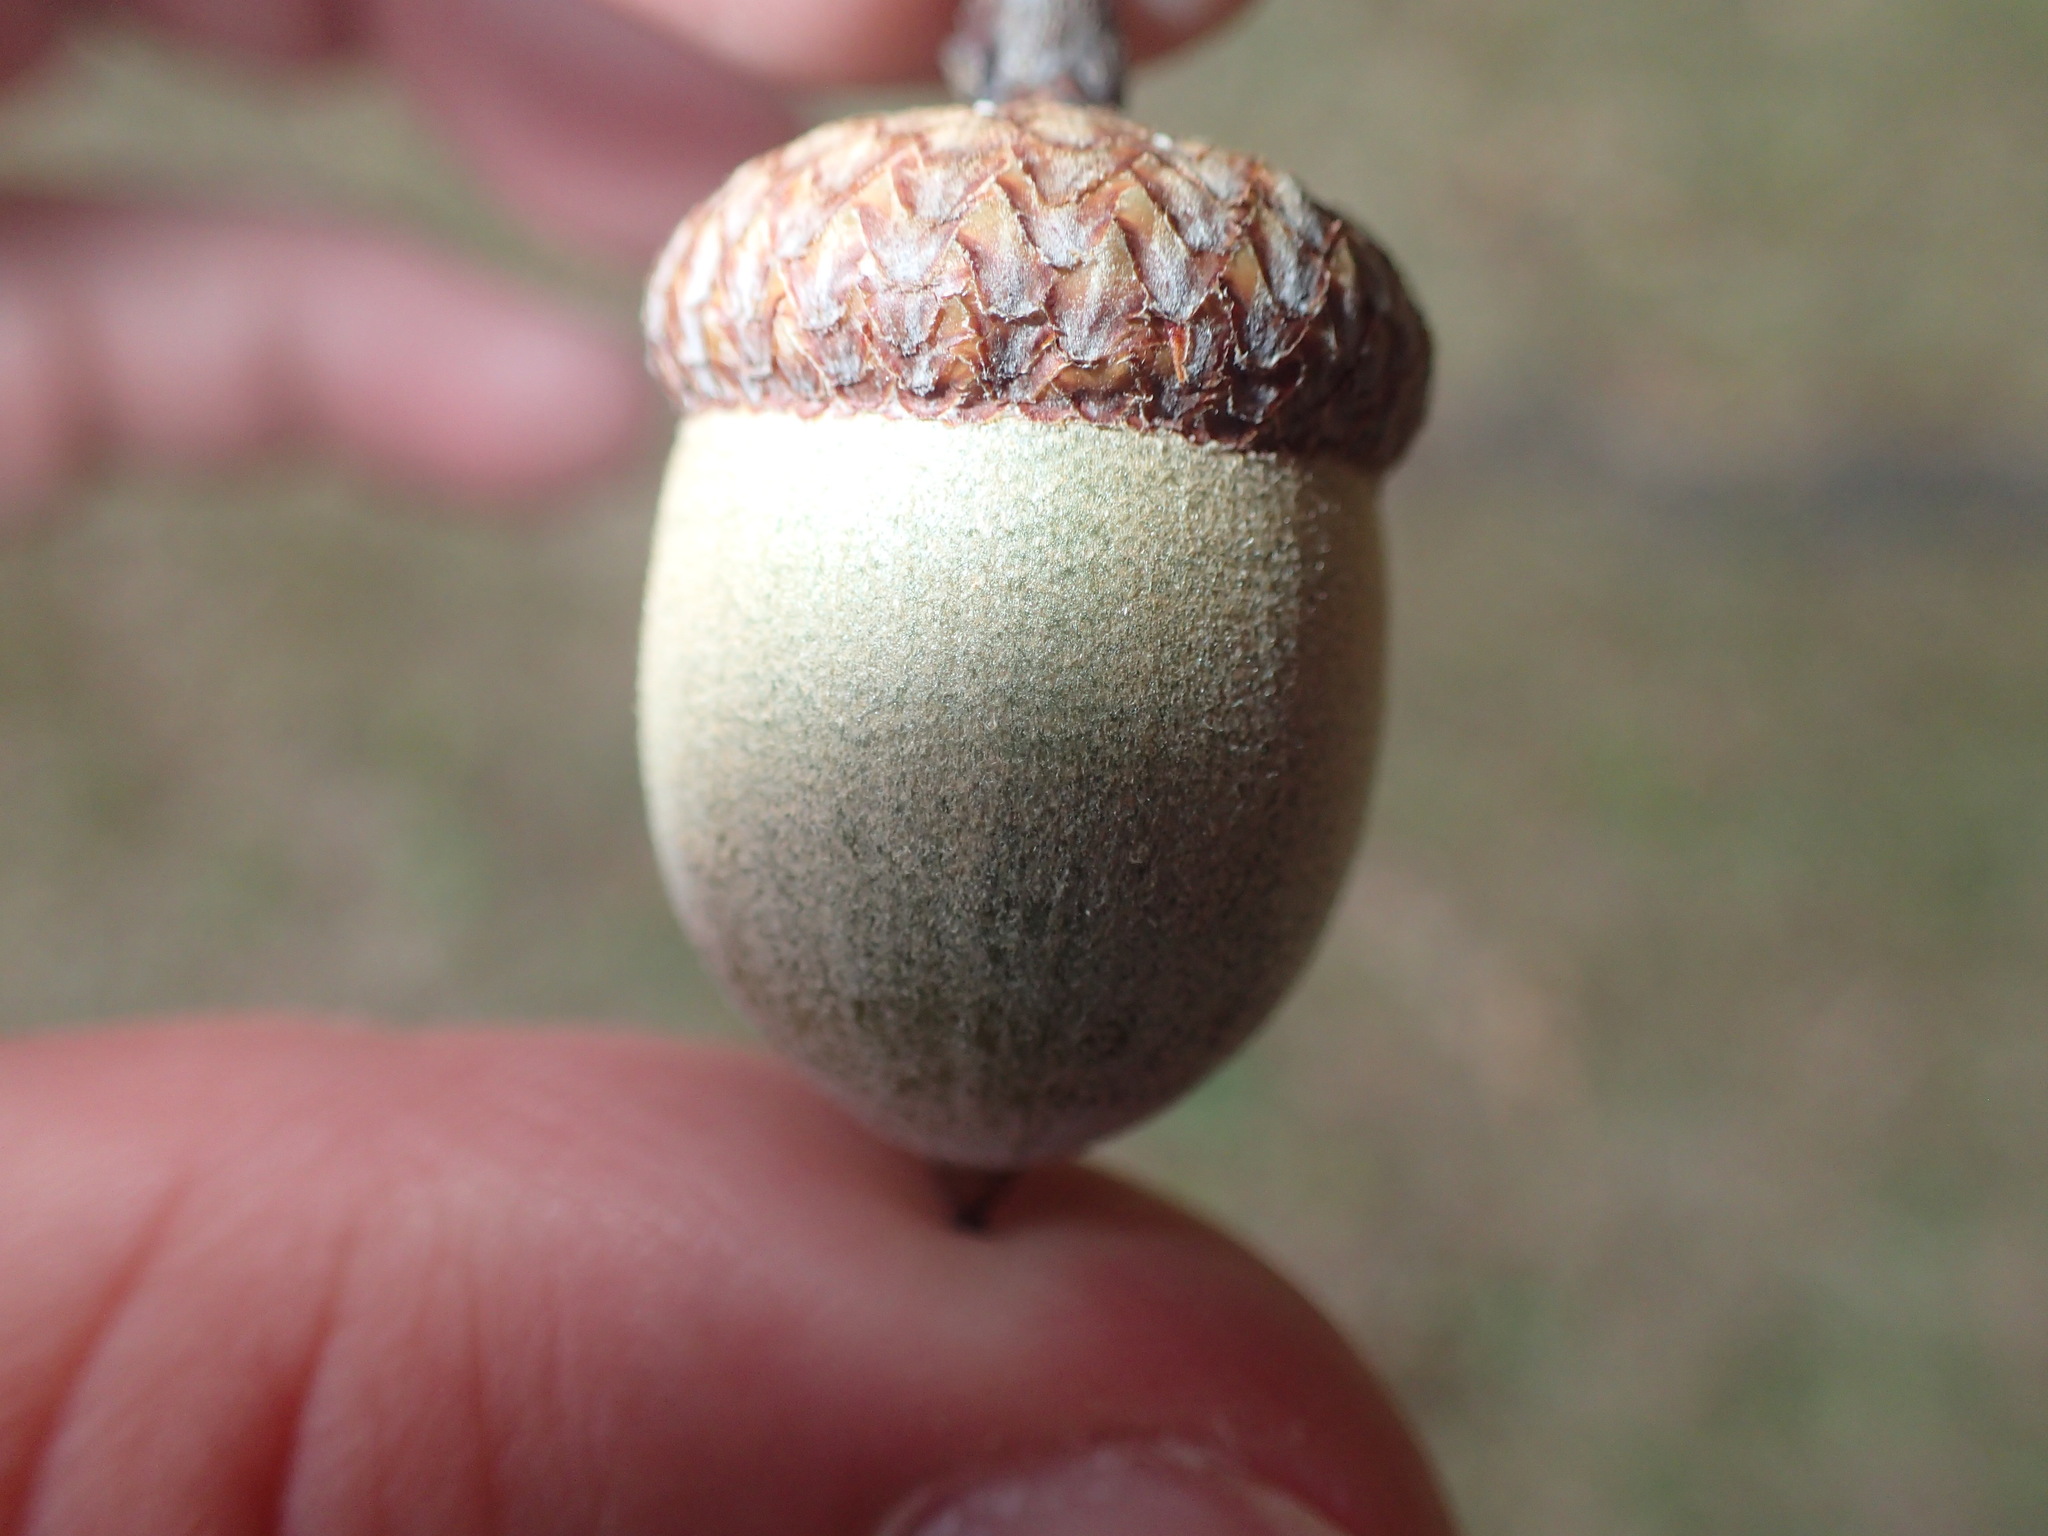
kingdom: Plantae
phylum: Tracheophyta
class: Magnoliopsida
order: Fagales
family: Fagaceae
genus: Quercus
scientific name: Quercus rubra
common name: Red oak
